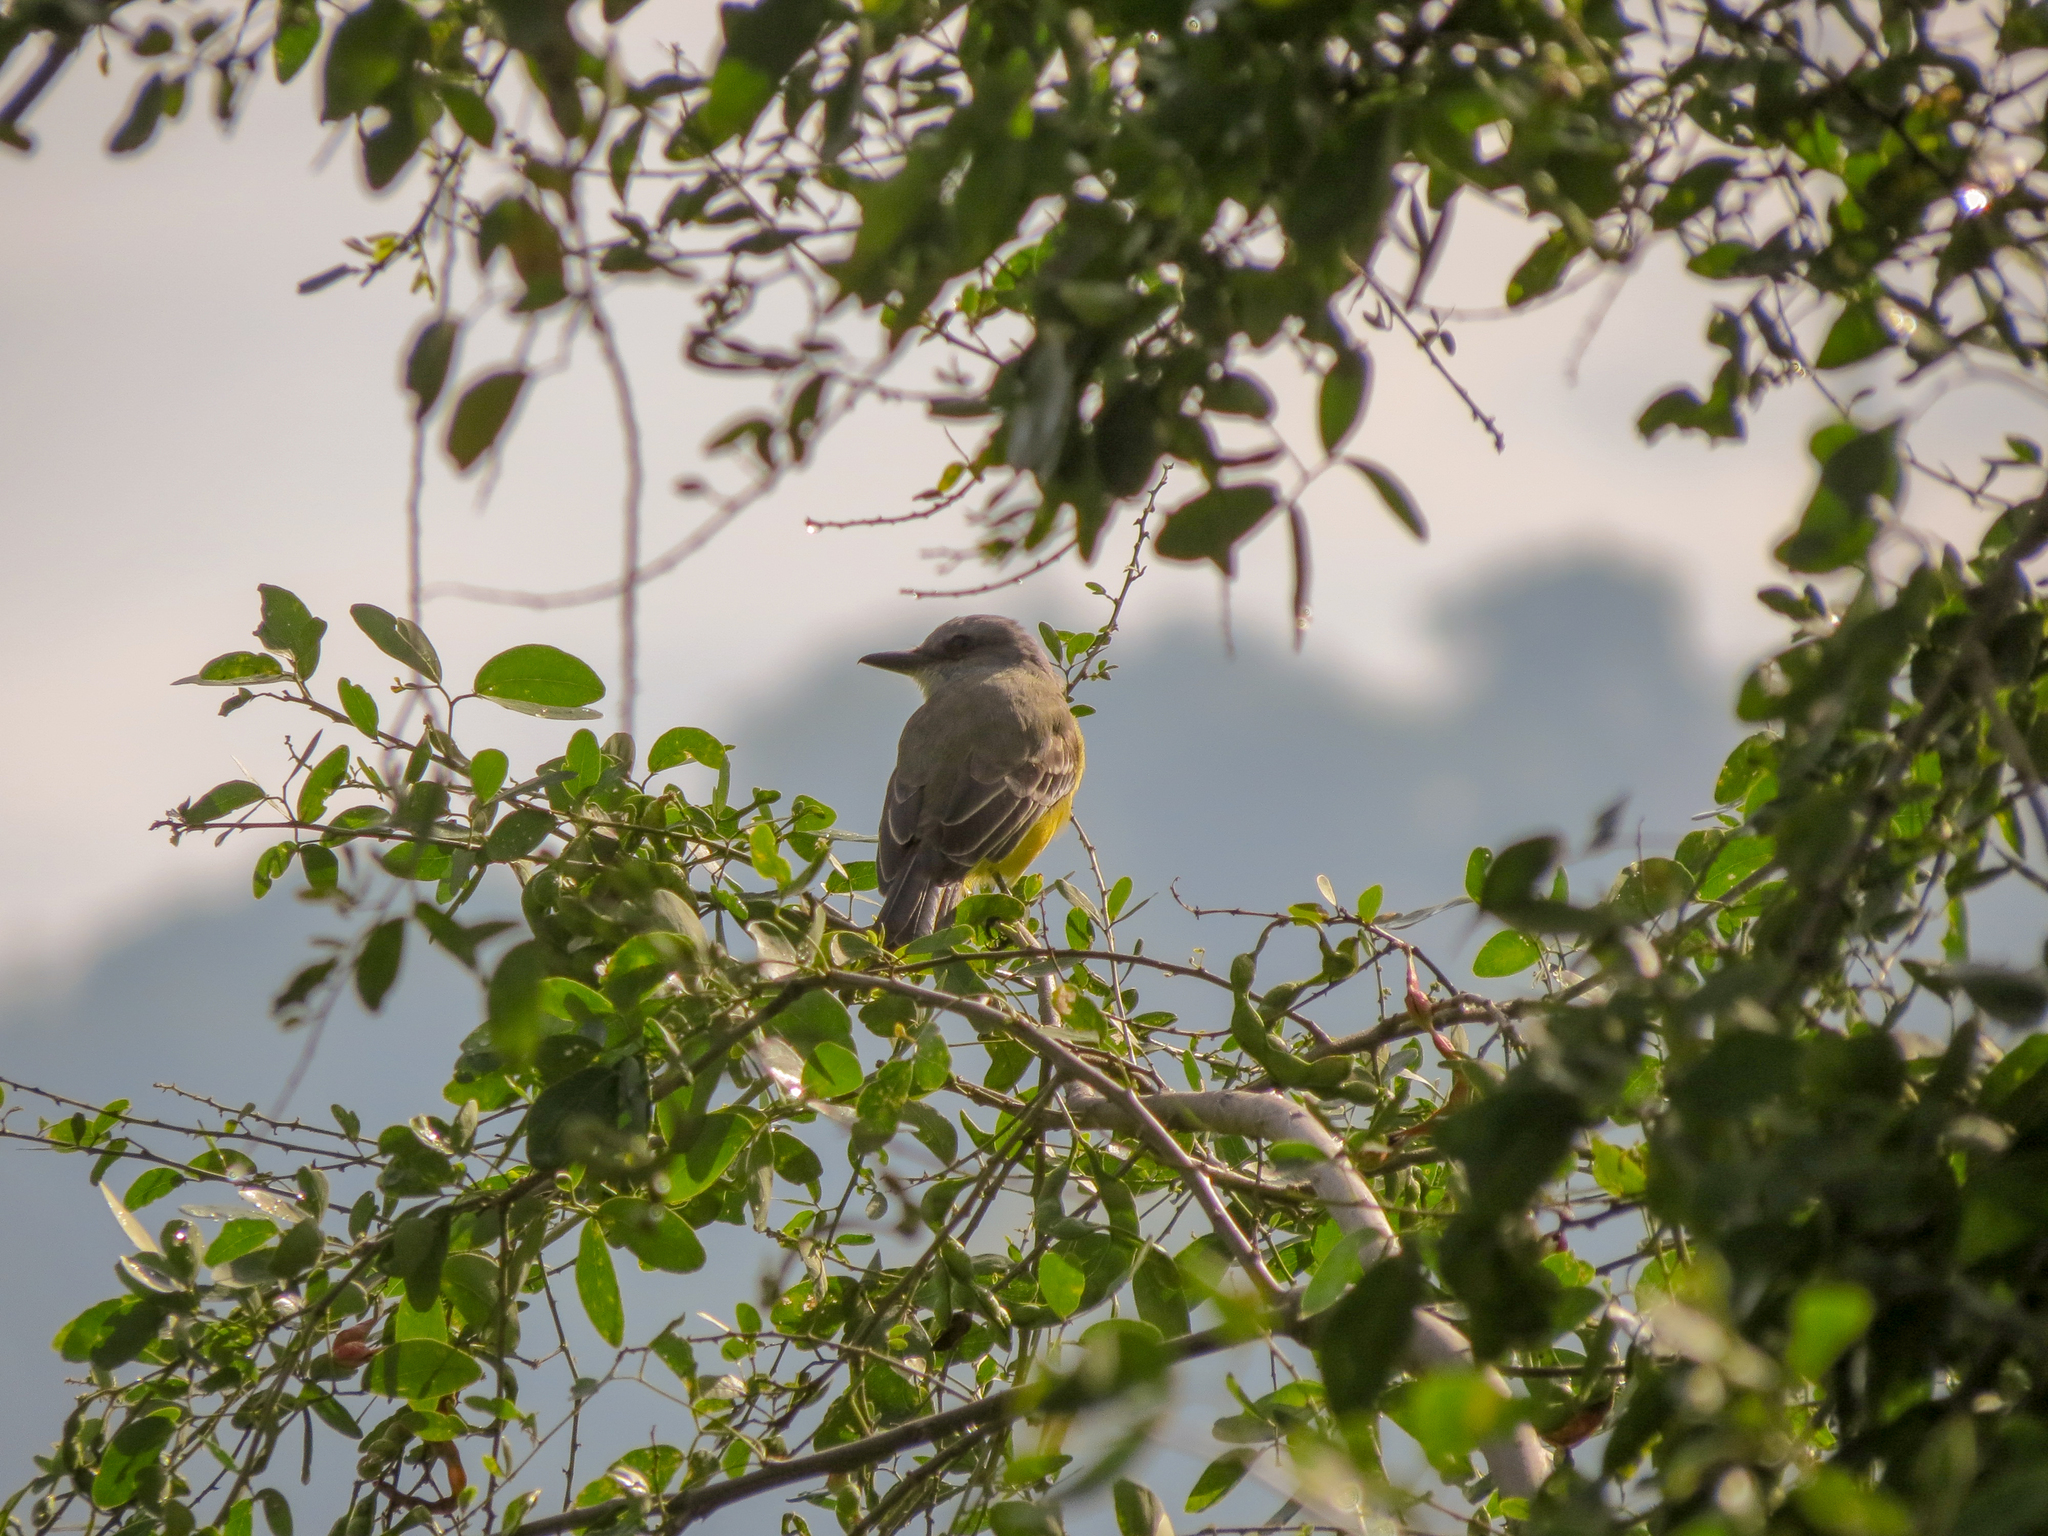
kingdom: Animalia
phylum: Chordata
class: Aves
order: Passeriformes
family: Tyrannidae
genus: Tyrannus
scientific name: Tyrannus melancholicus
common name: Tropical kingbird
